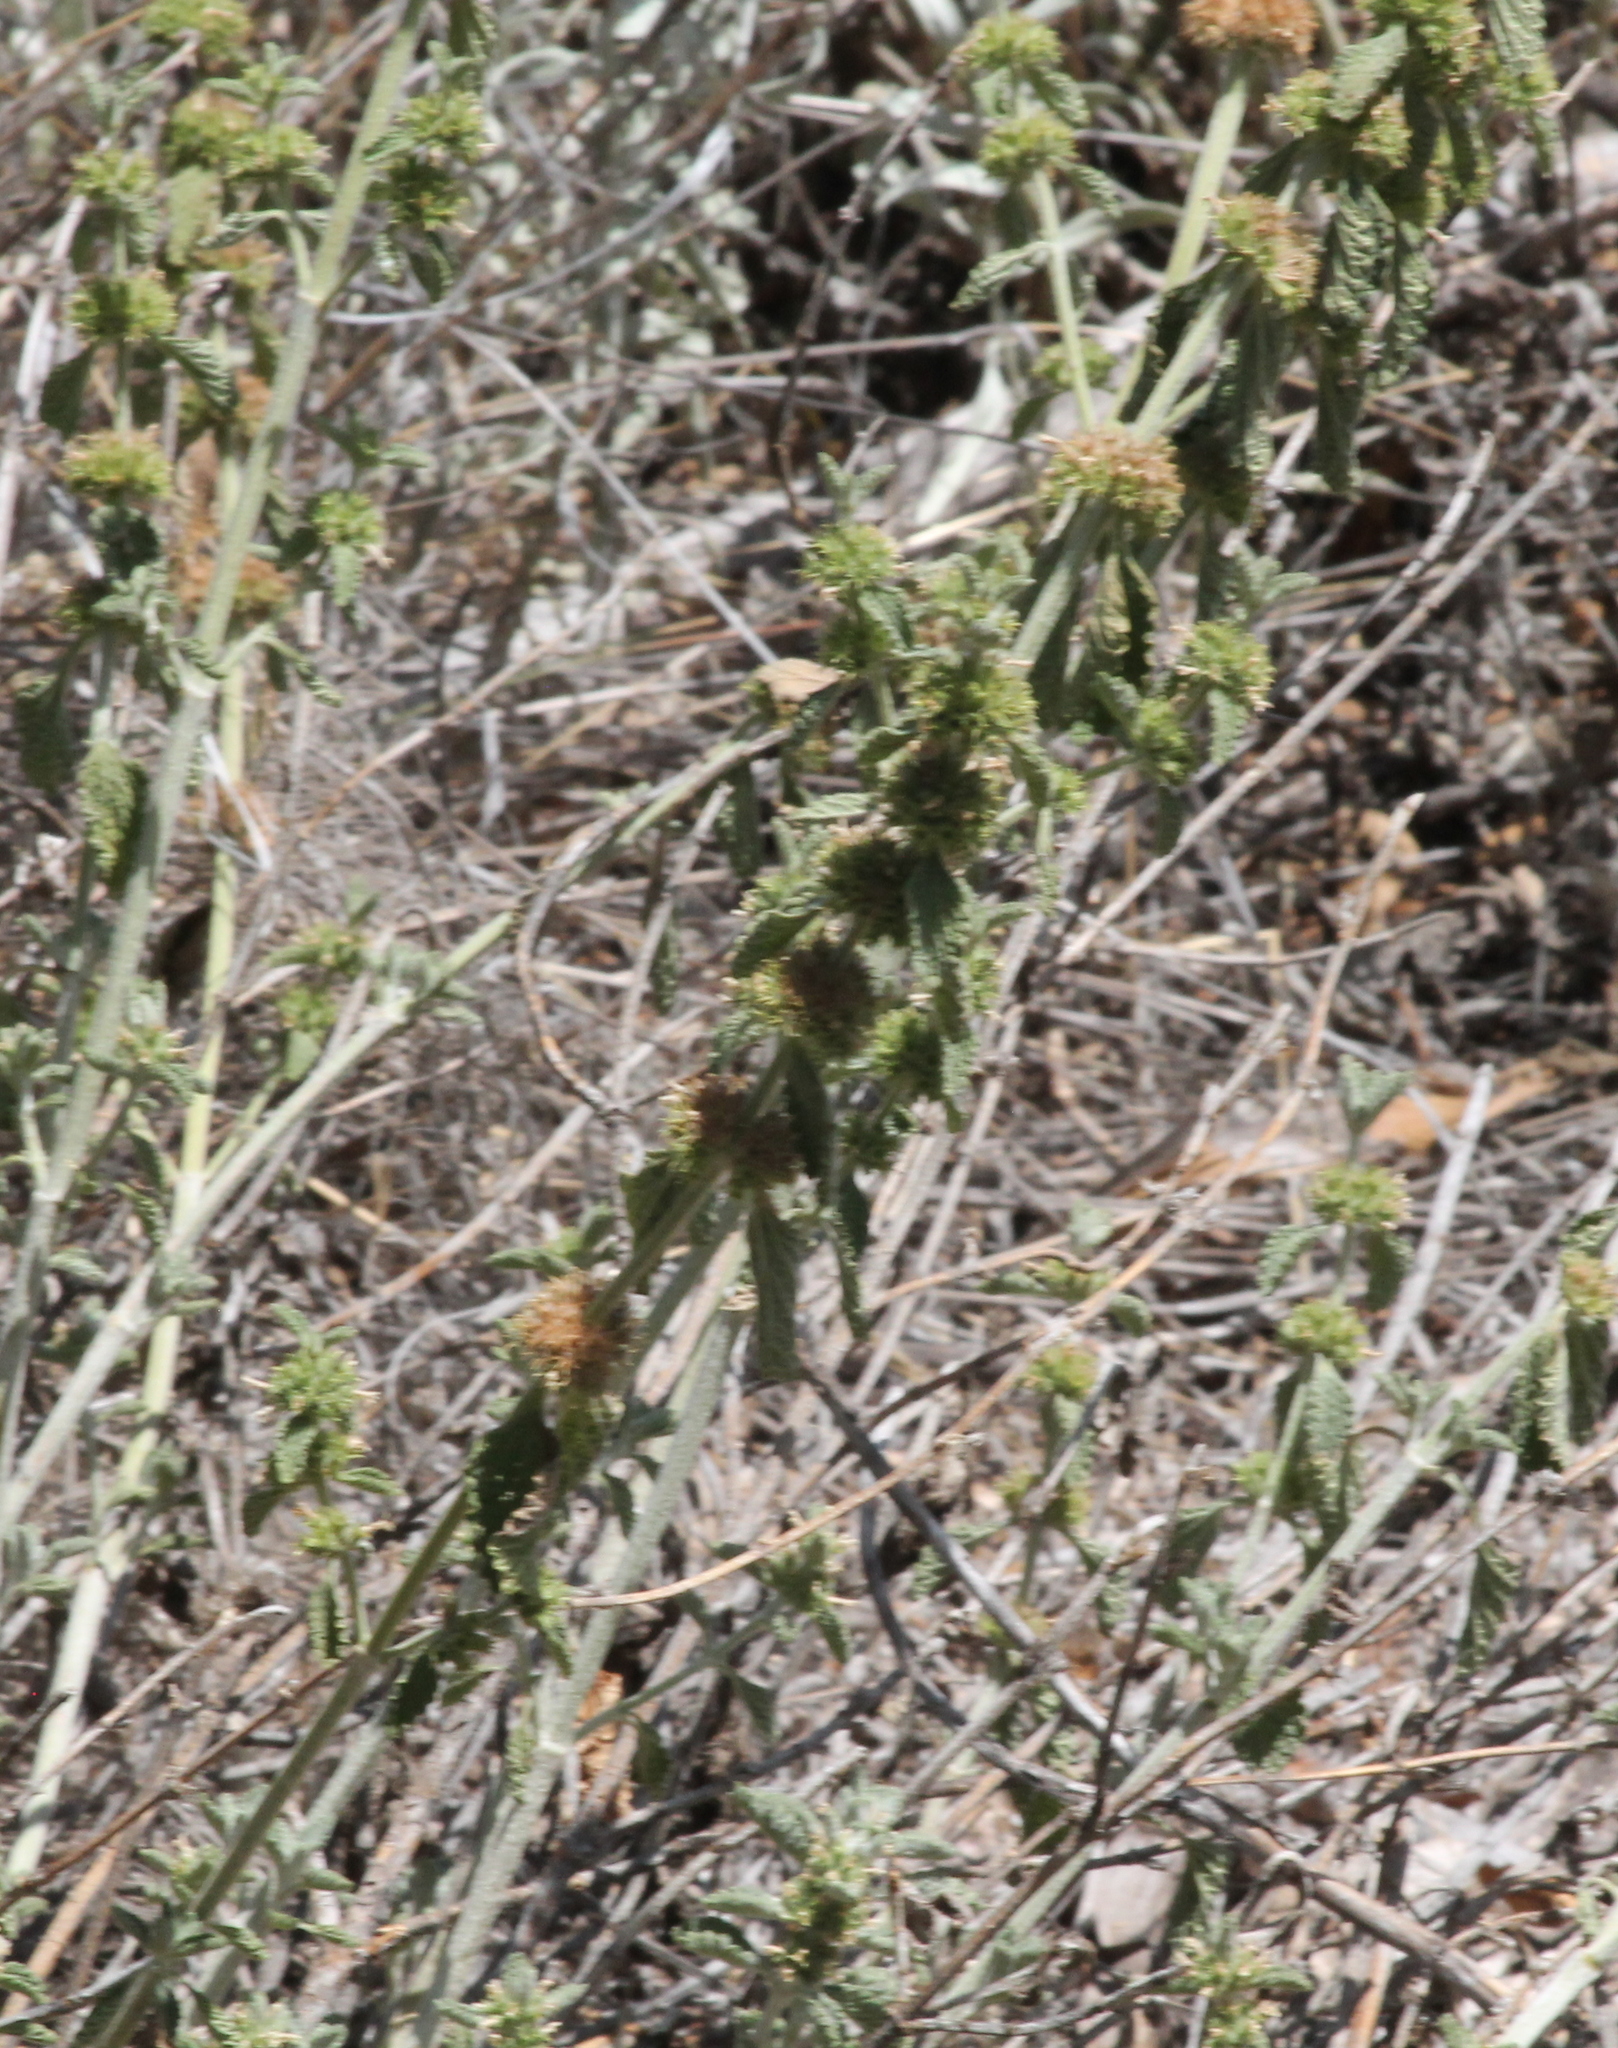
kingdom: Plantae
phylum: Tracheophyta
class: Magnoliopsida
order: Lamiales
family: Lamiaceae
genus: Marrubium
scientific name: Marrubium vulgare
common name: Horehound
